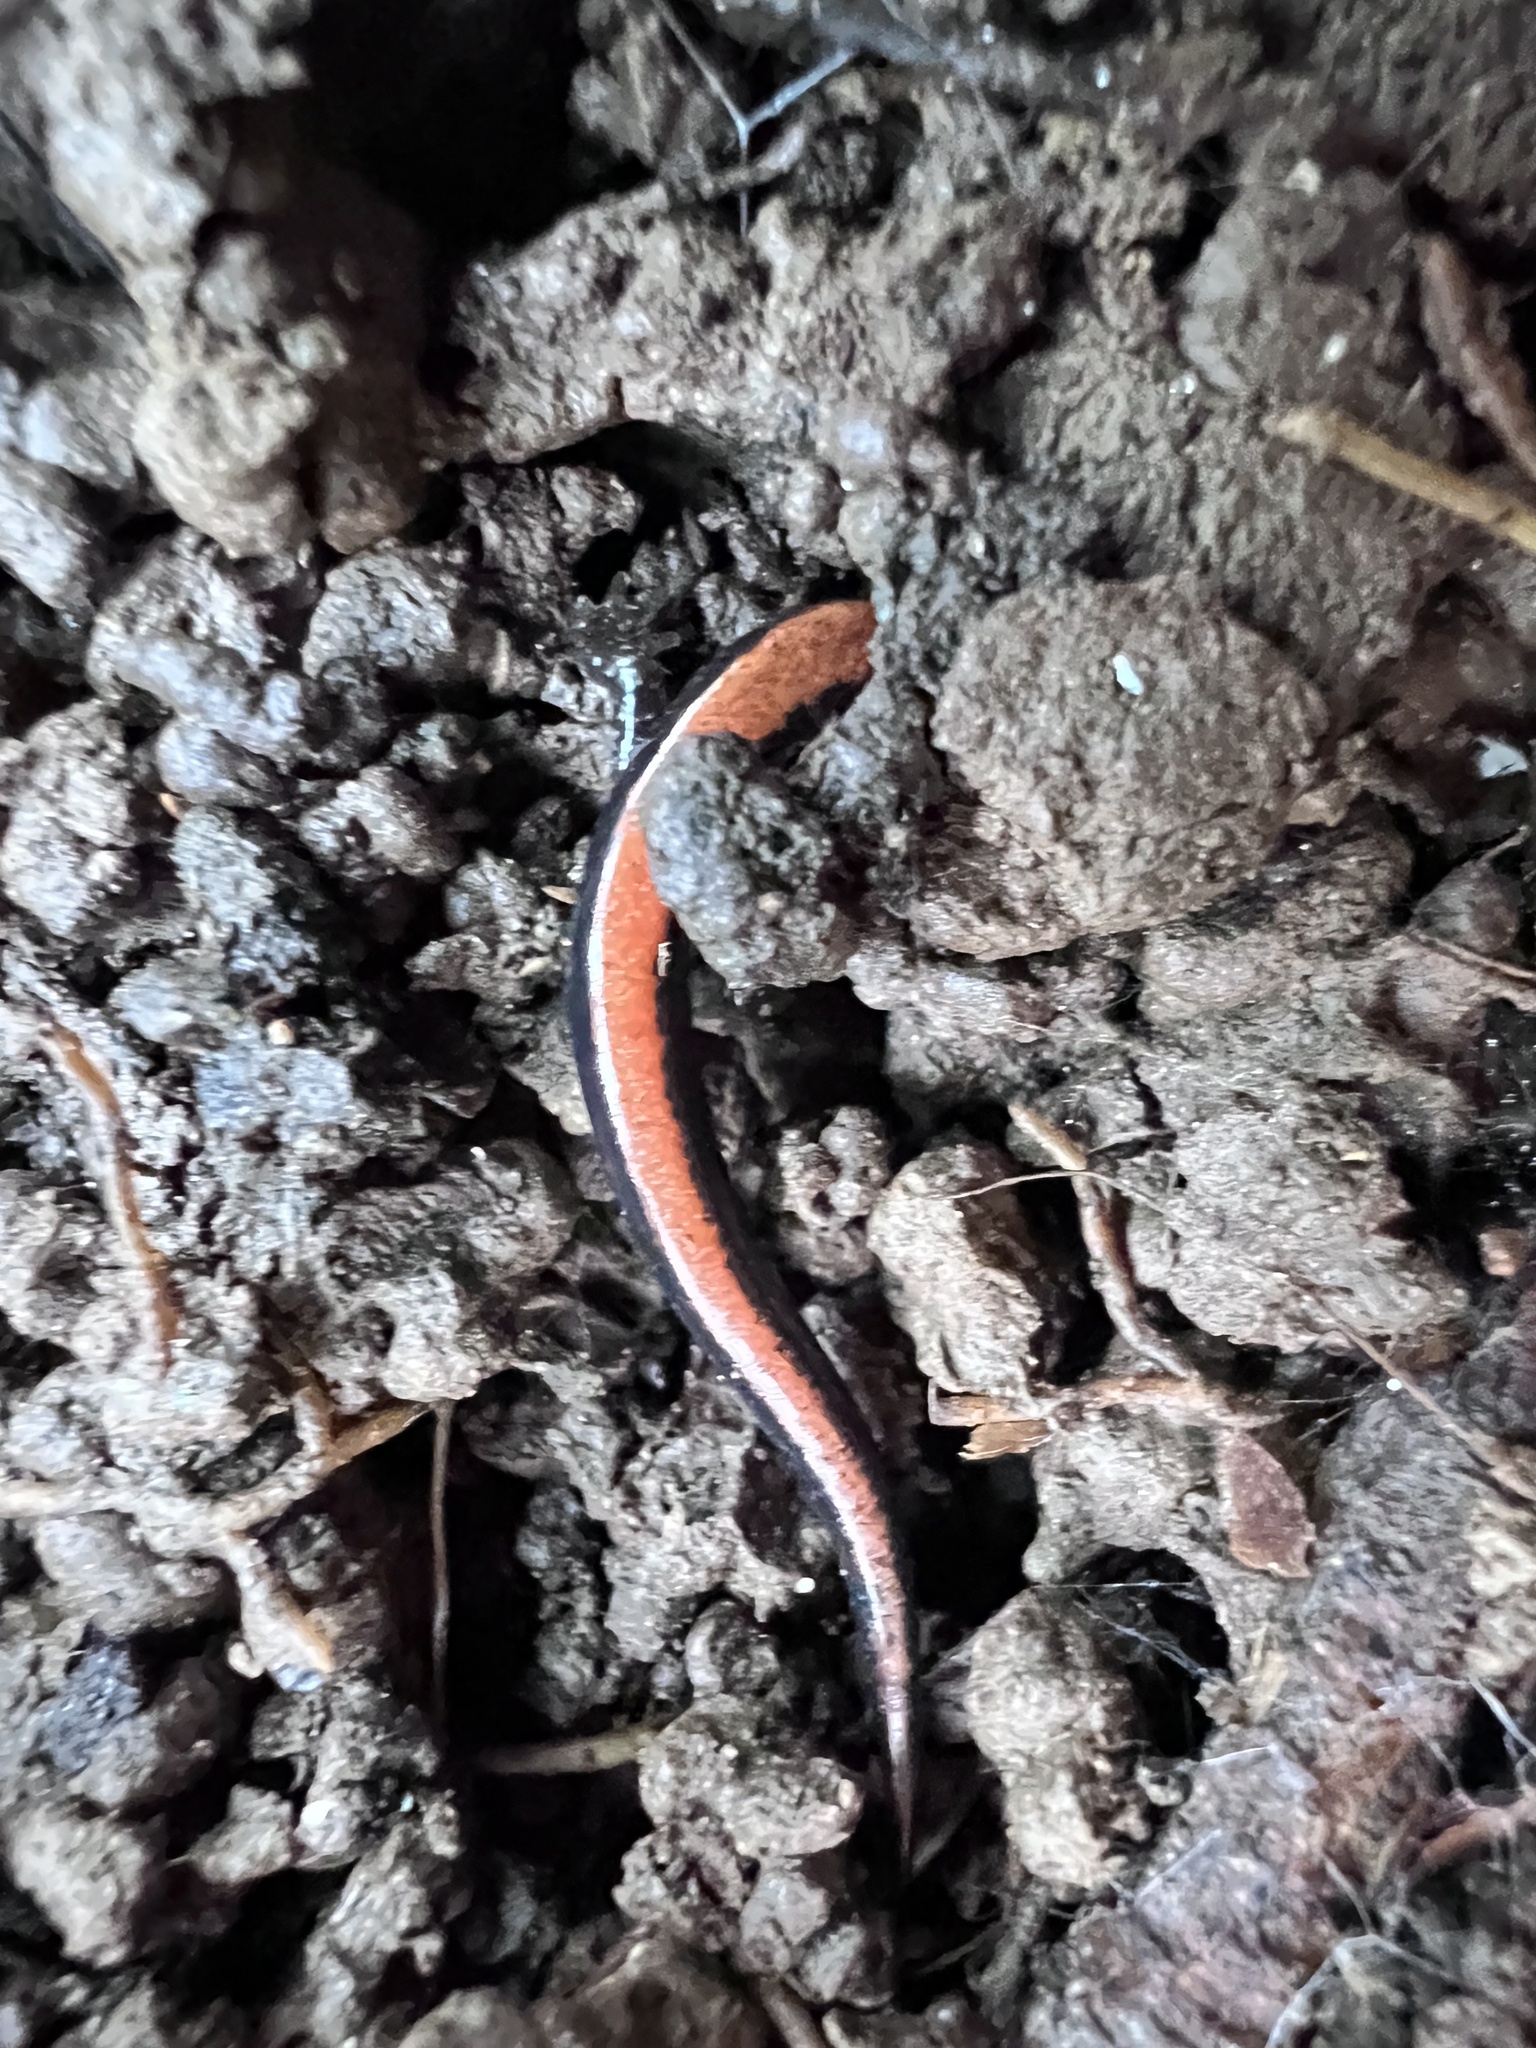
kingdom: Animalia
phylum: Chordata
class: Amphibia
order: Caudata
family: Plethodontidae
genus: Plethodon
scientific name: Plethodon cinereus
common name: Redback salamander
